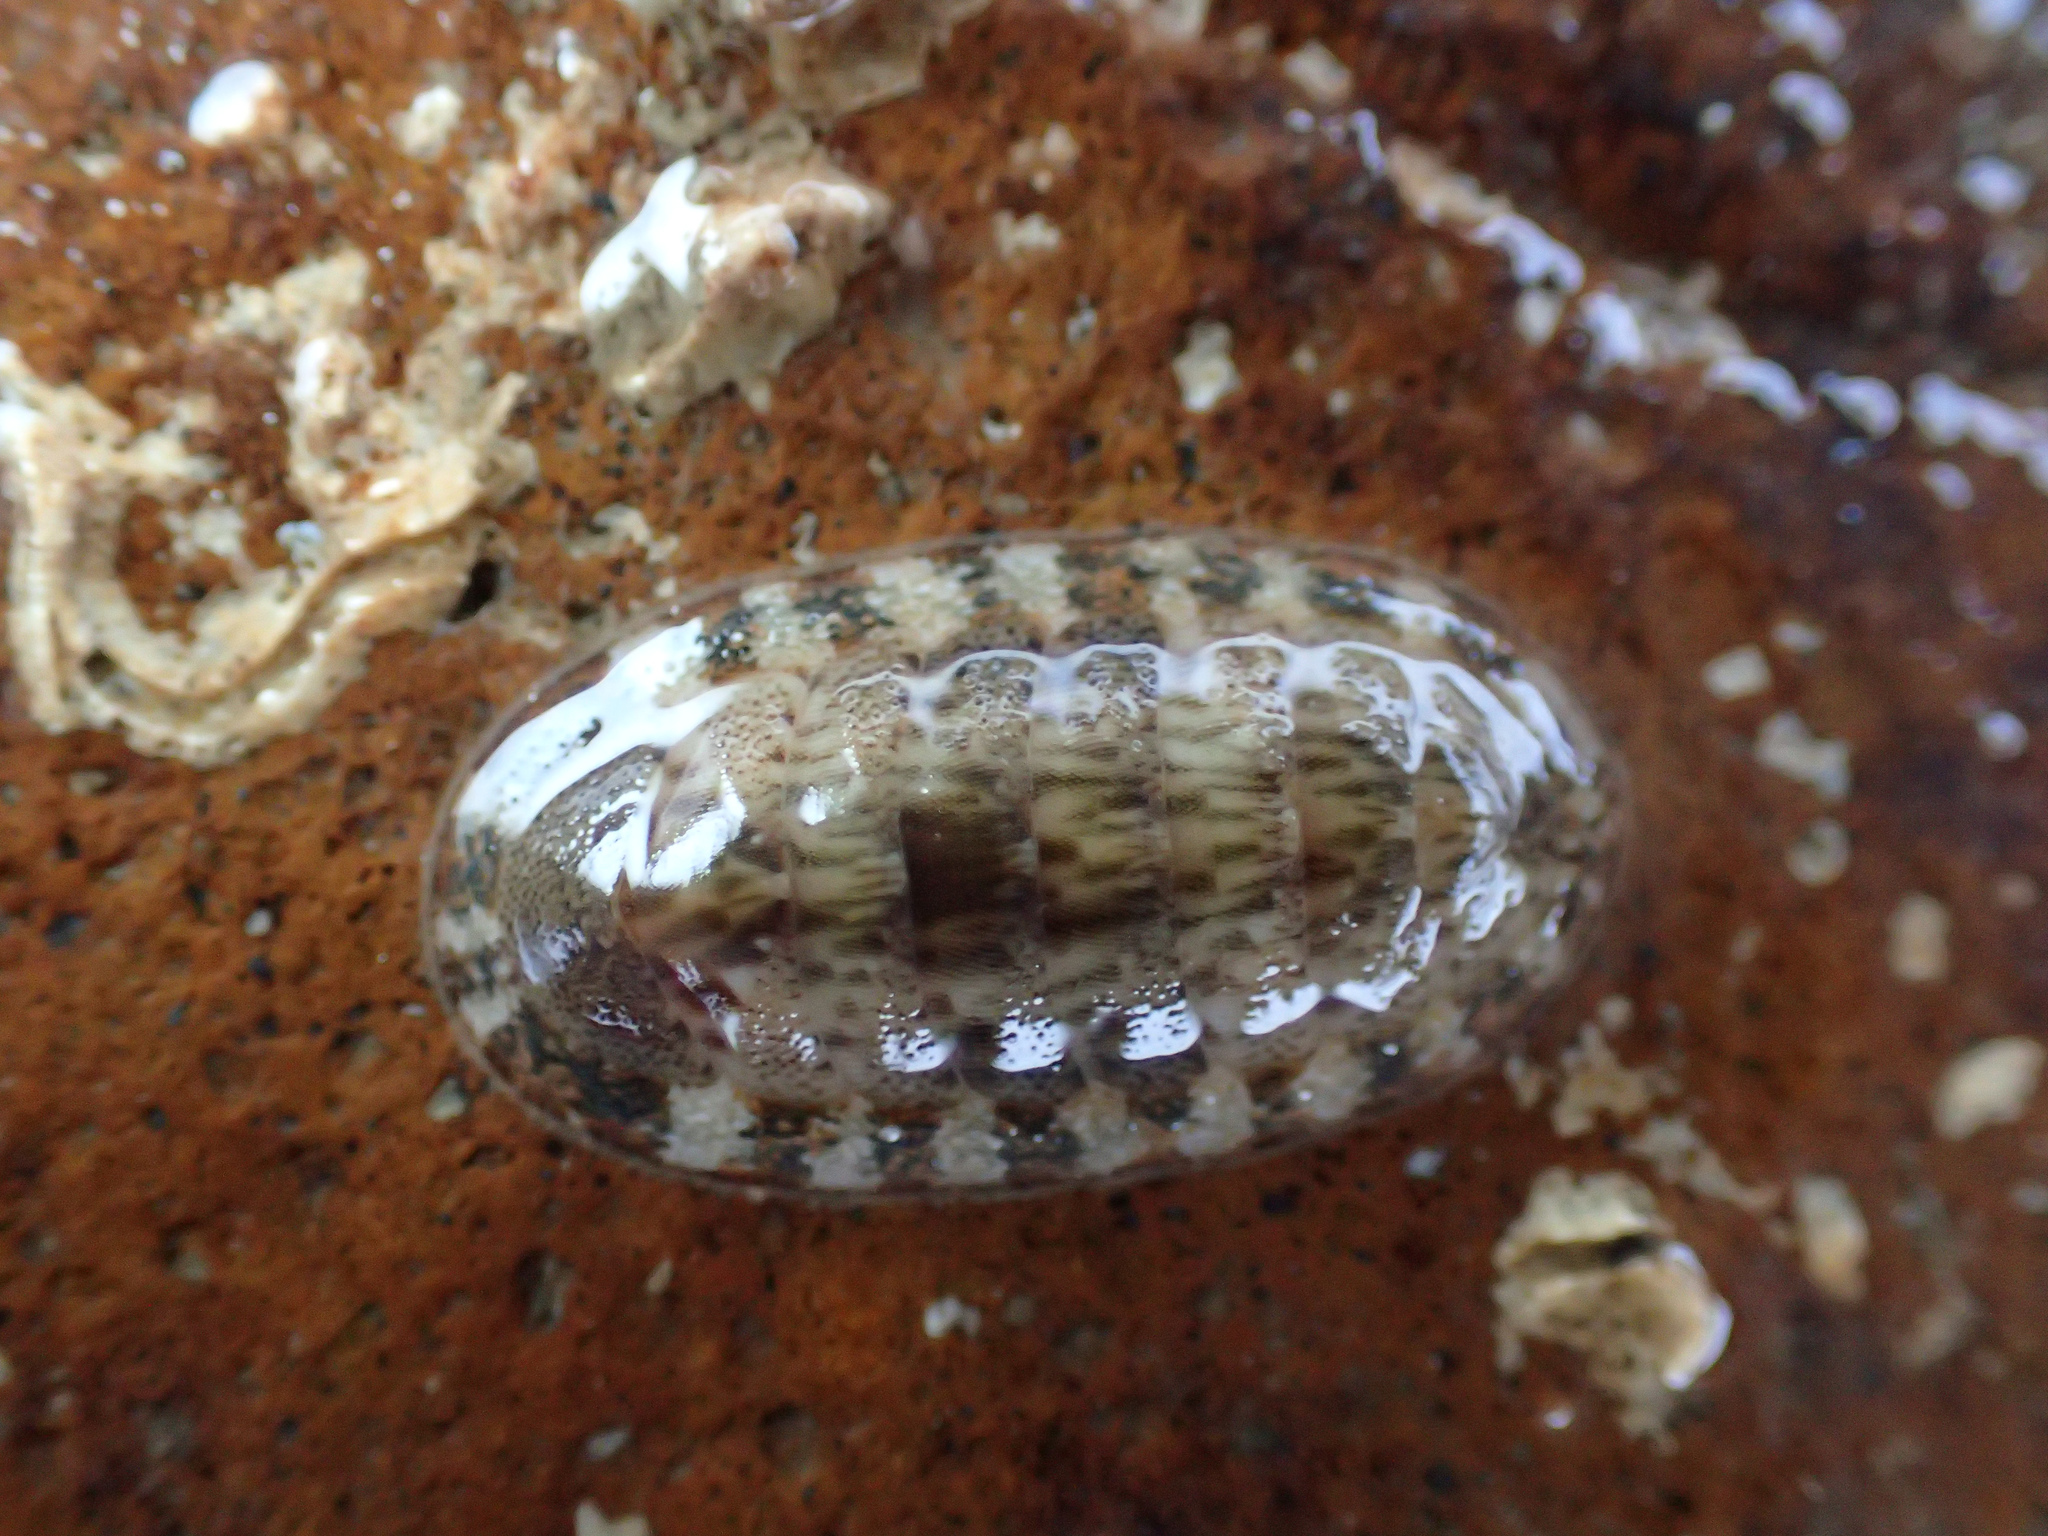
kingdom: Animalia
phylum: Mollusca
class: Polyplacophora
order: Chitonida
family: Ischnochitonidae
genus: Ischnochiton
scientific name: Ischnochiton dispar
